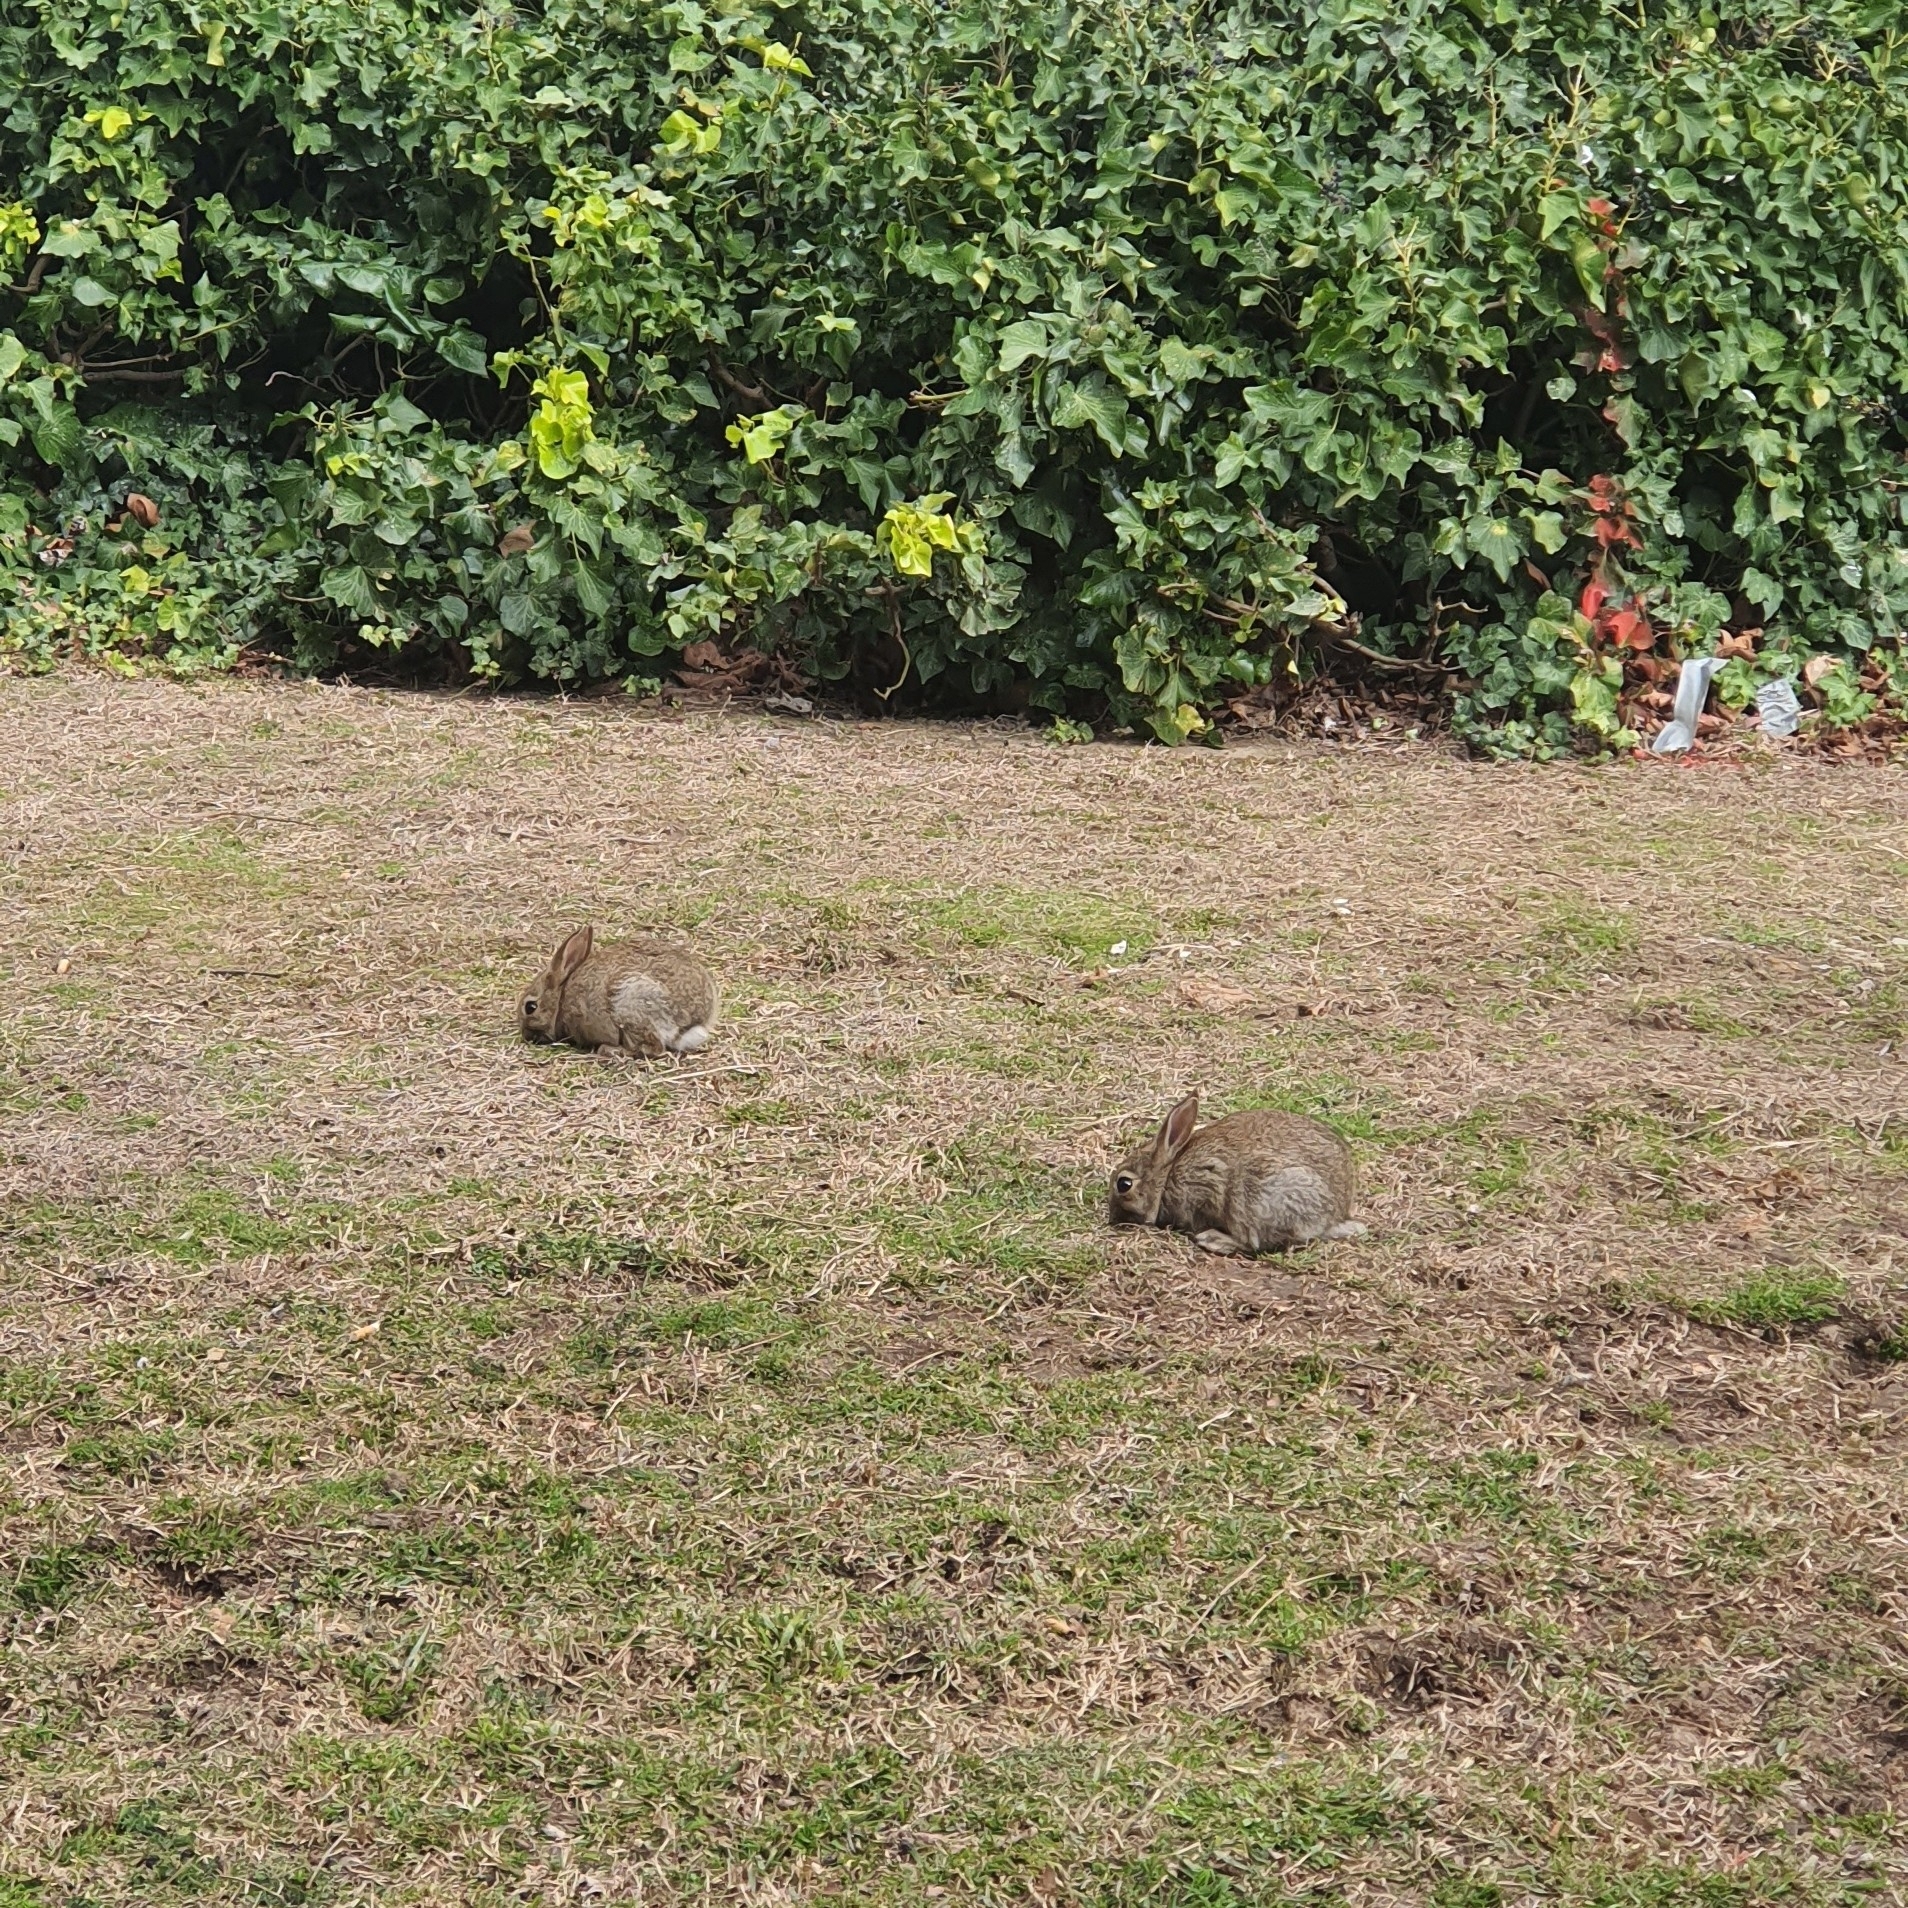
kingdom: Animalia
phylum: Chordata
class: Mammalia
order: Lagomorpha
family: Leporidae
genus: Oryctolagus
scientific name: Oryctolagus cuniculus
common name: European rabbit
